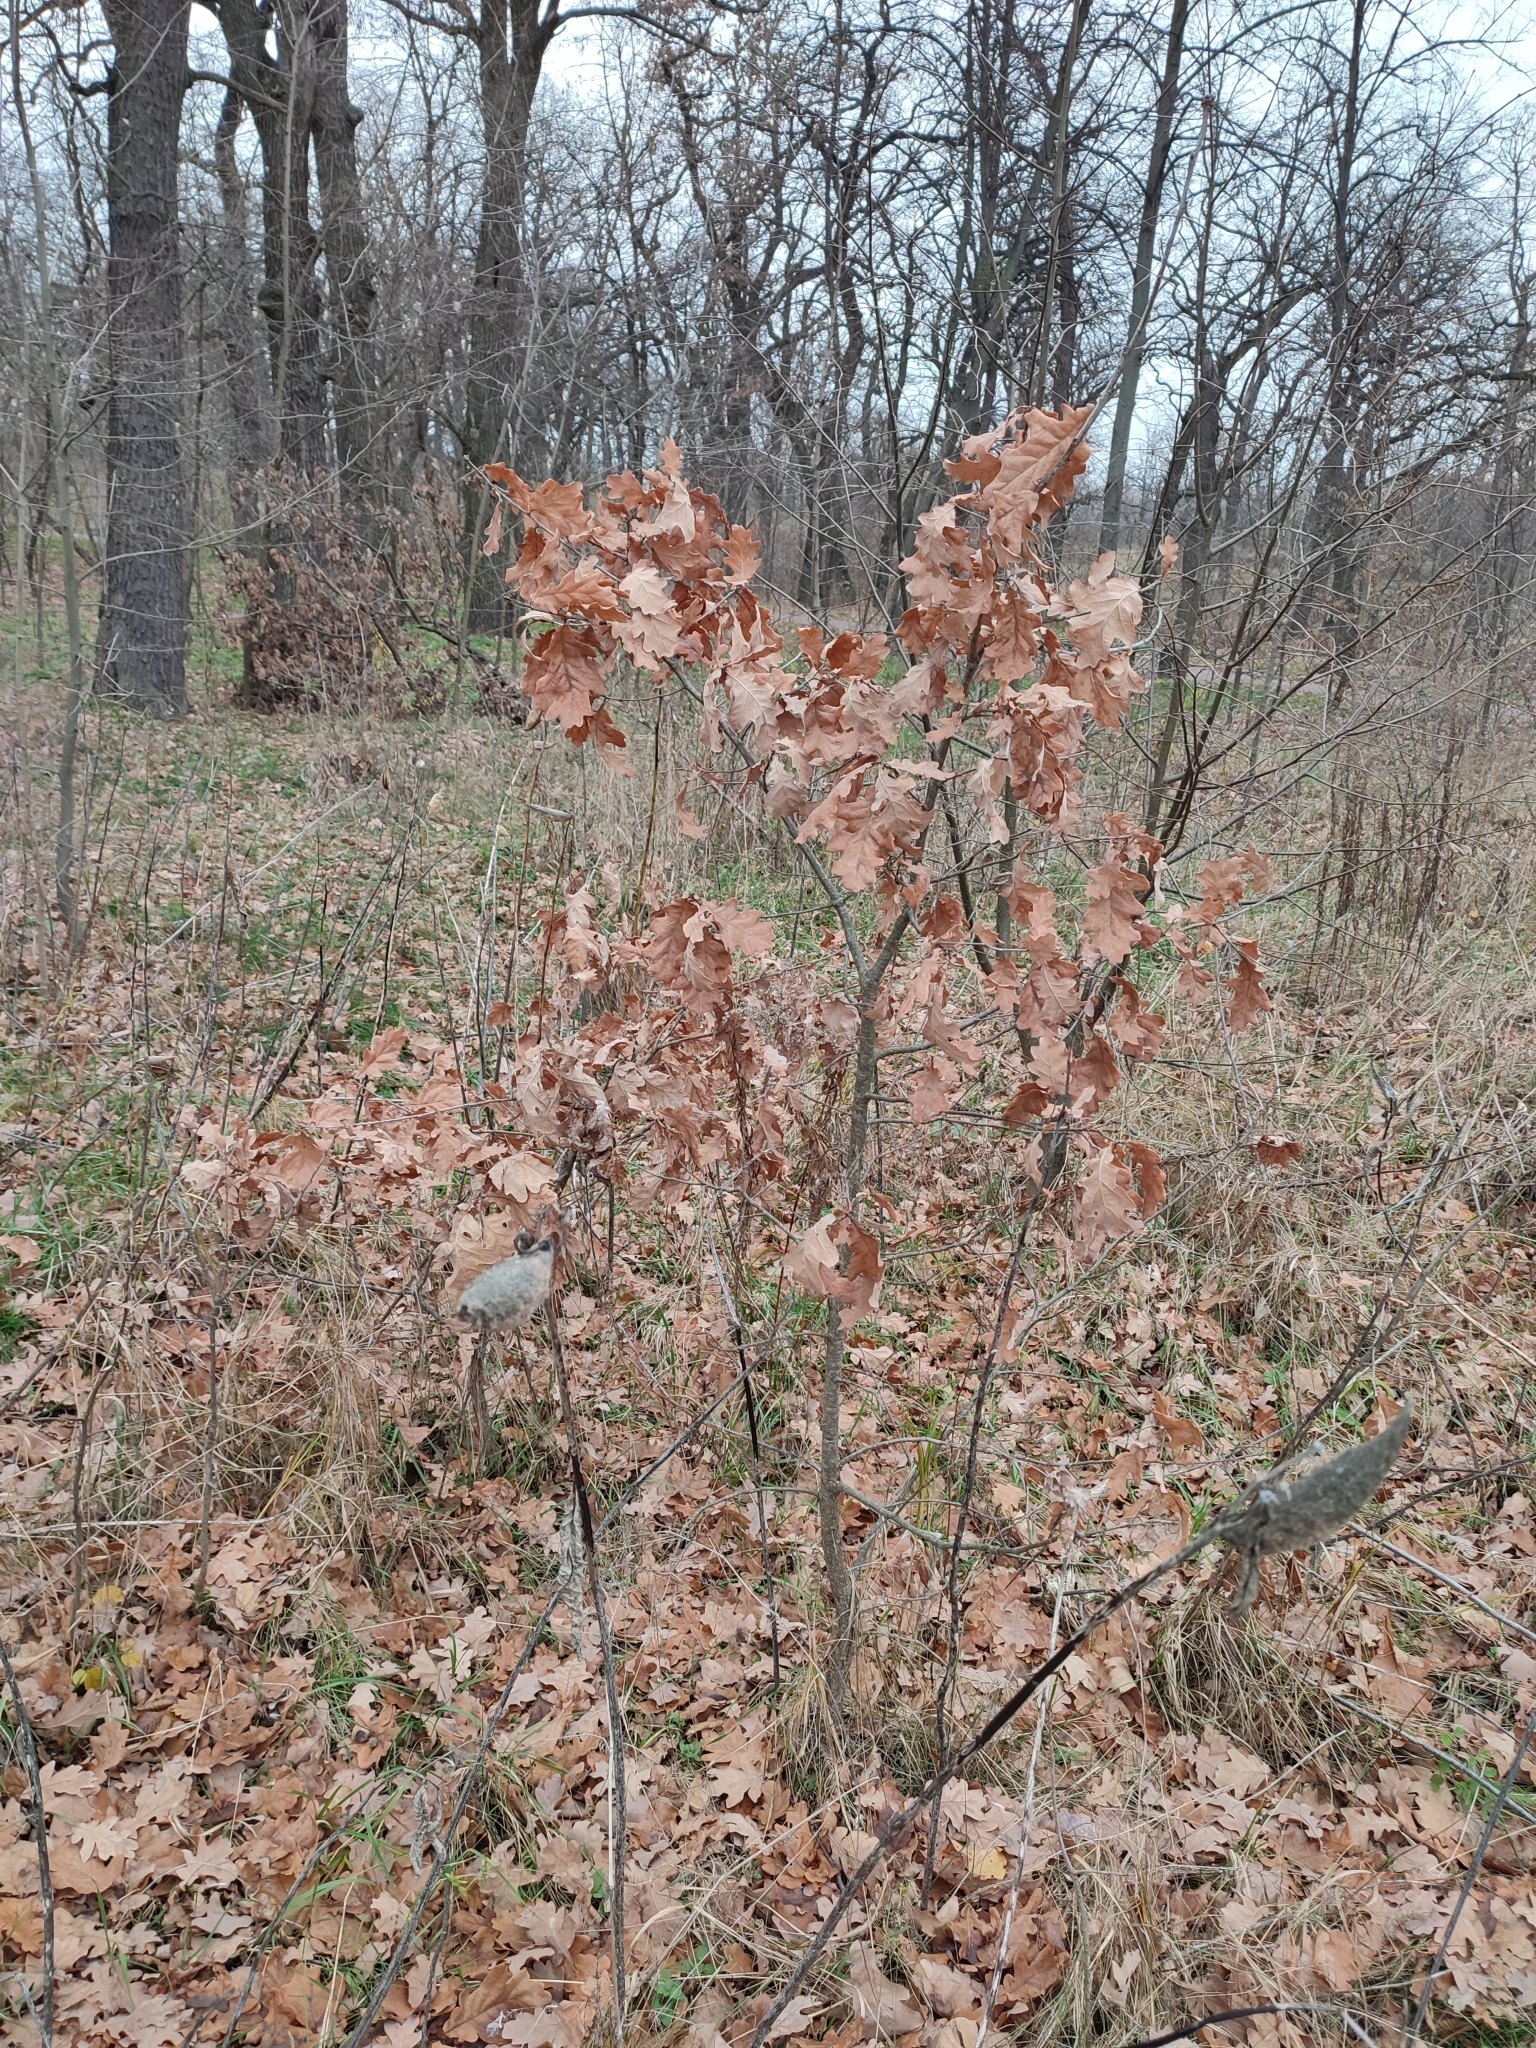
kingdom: Plantae
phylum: Tracheophyta
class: Magnoliopsida
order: Fagales
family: Fagaceae
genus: Quercus
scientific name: Quercus robur
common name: Pedunculate oak
